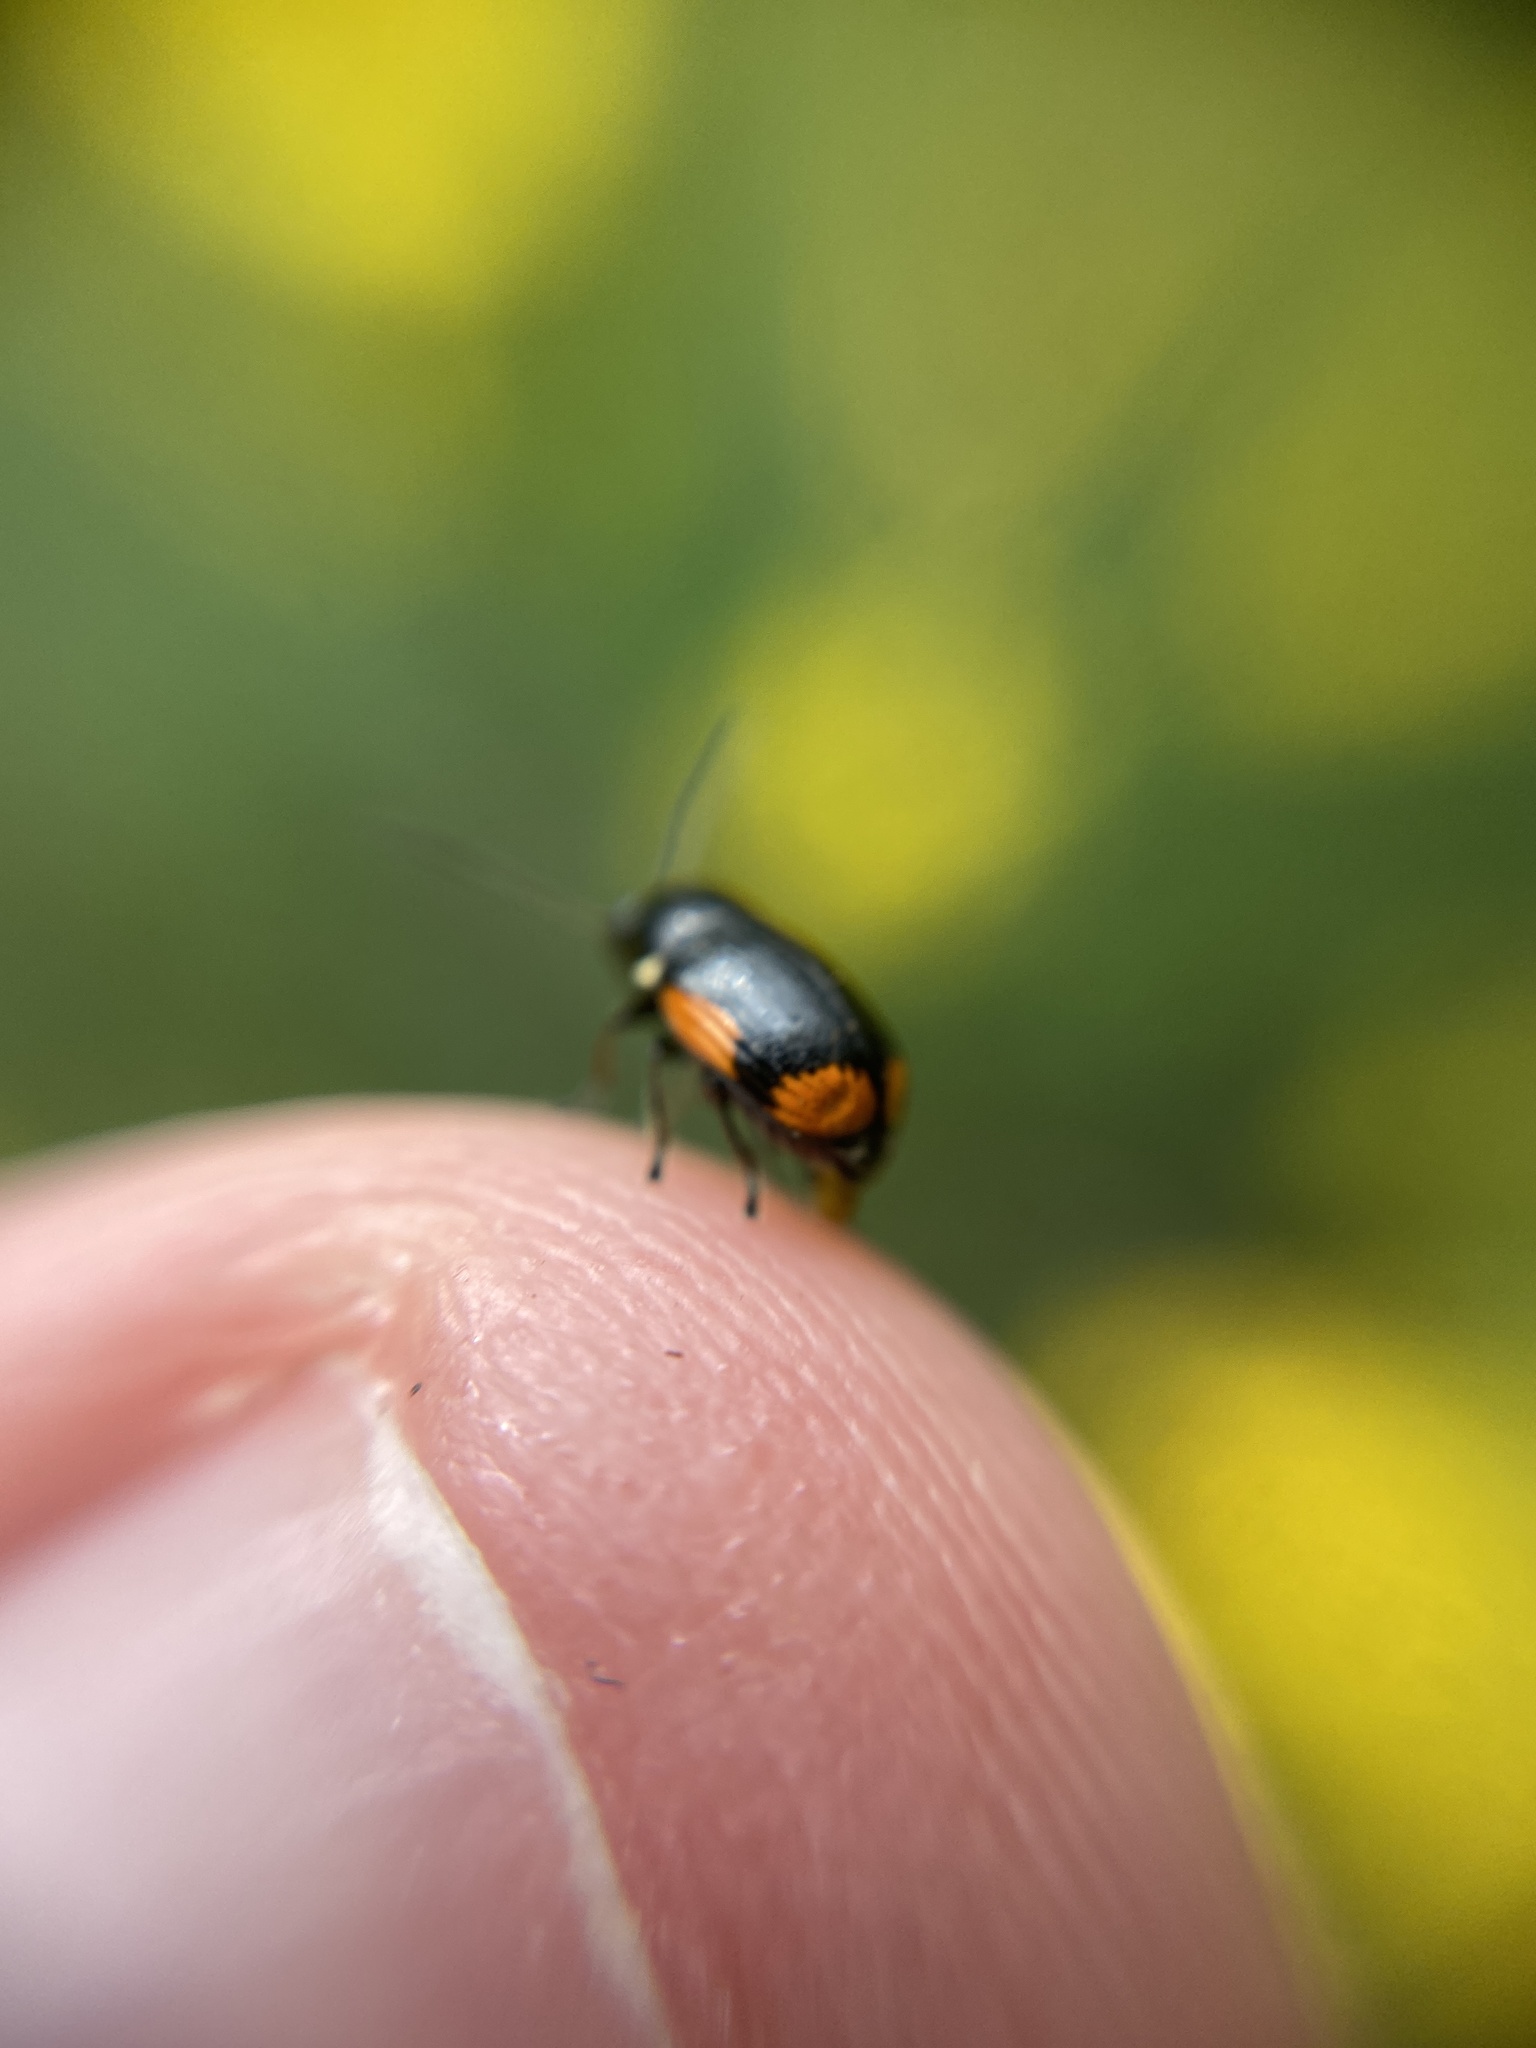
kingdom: Animalia
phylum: Arthropoda
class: Insecta
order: Coleoptera
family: Chrysomelidae
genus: Cryptocephalus
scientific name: Cryptocephalus moraei
